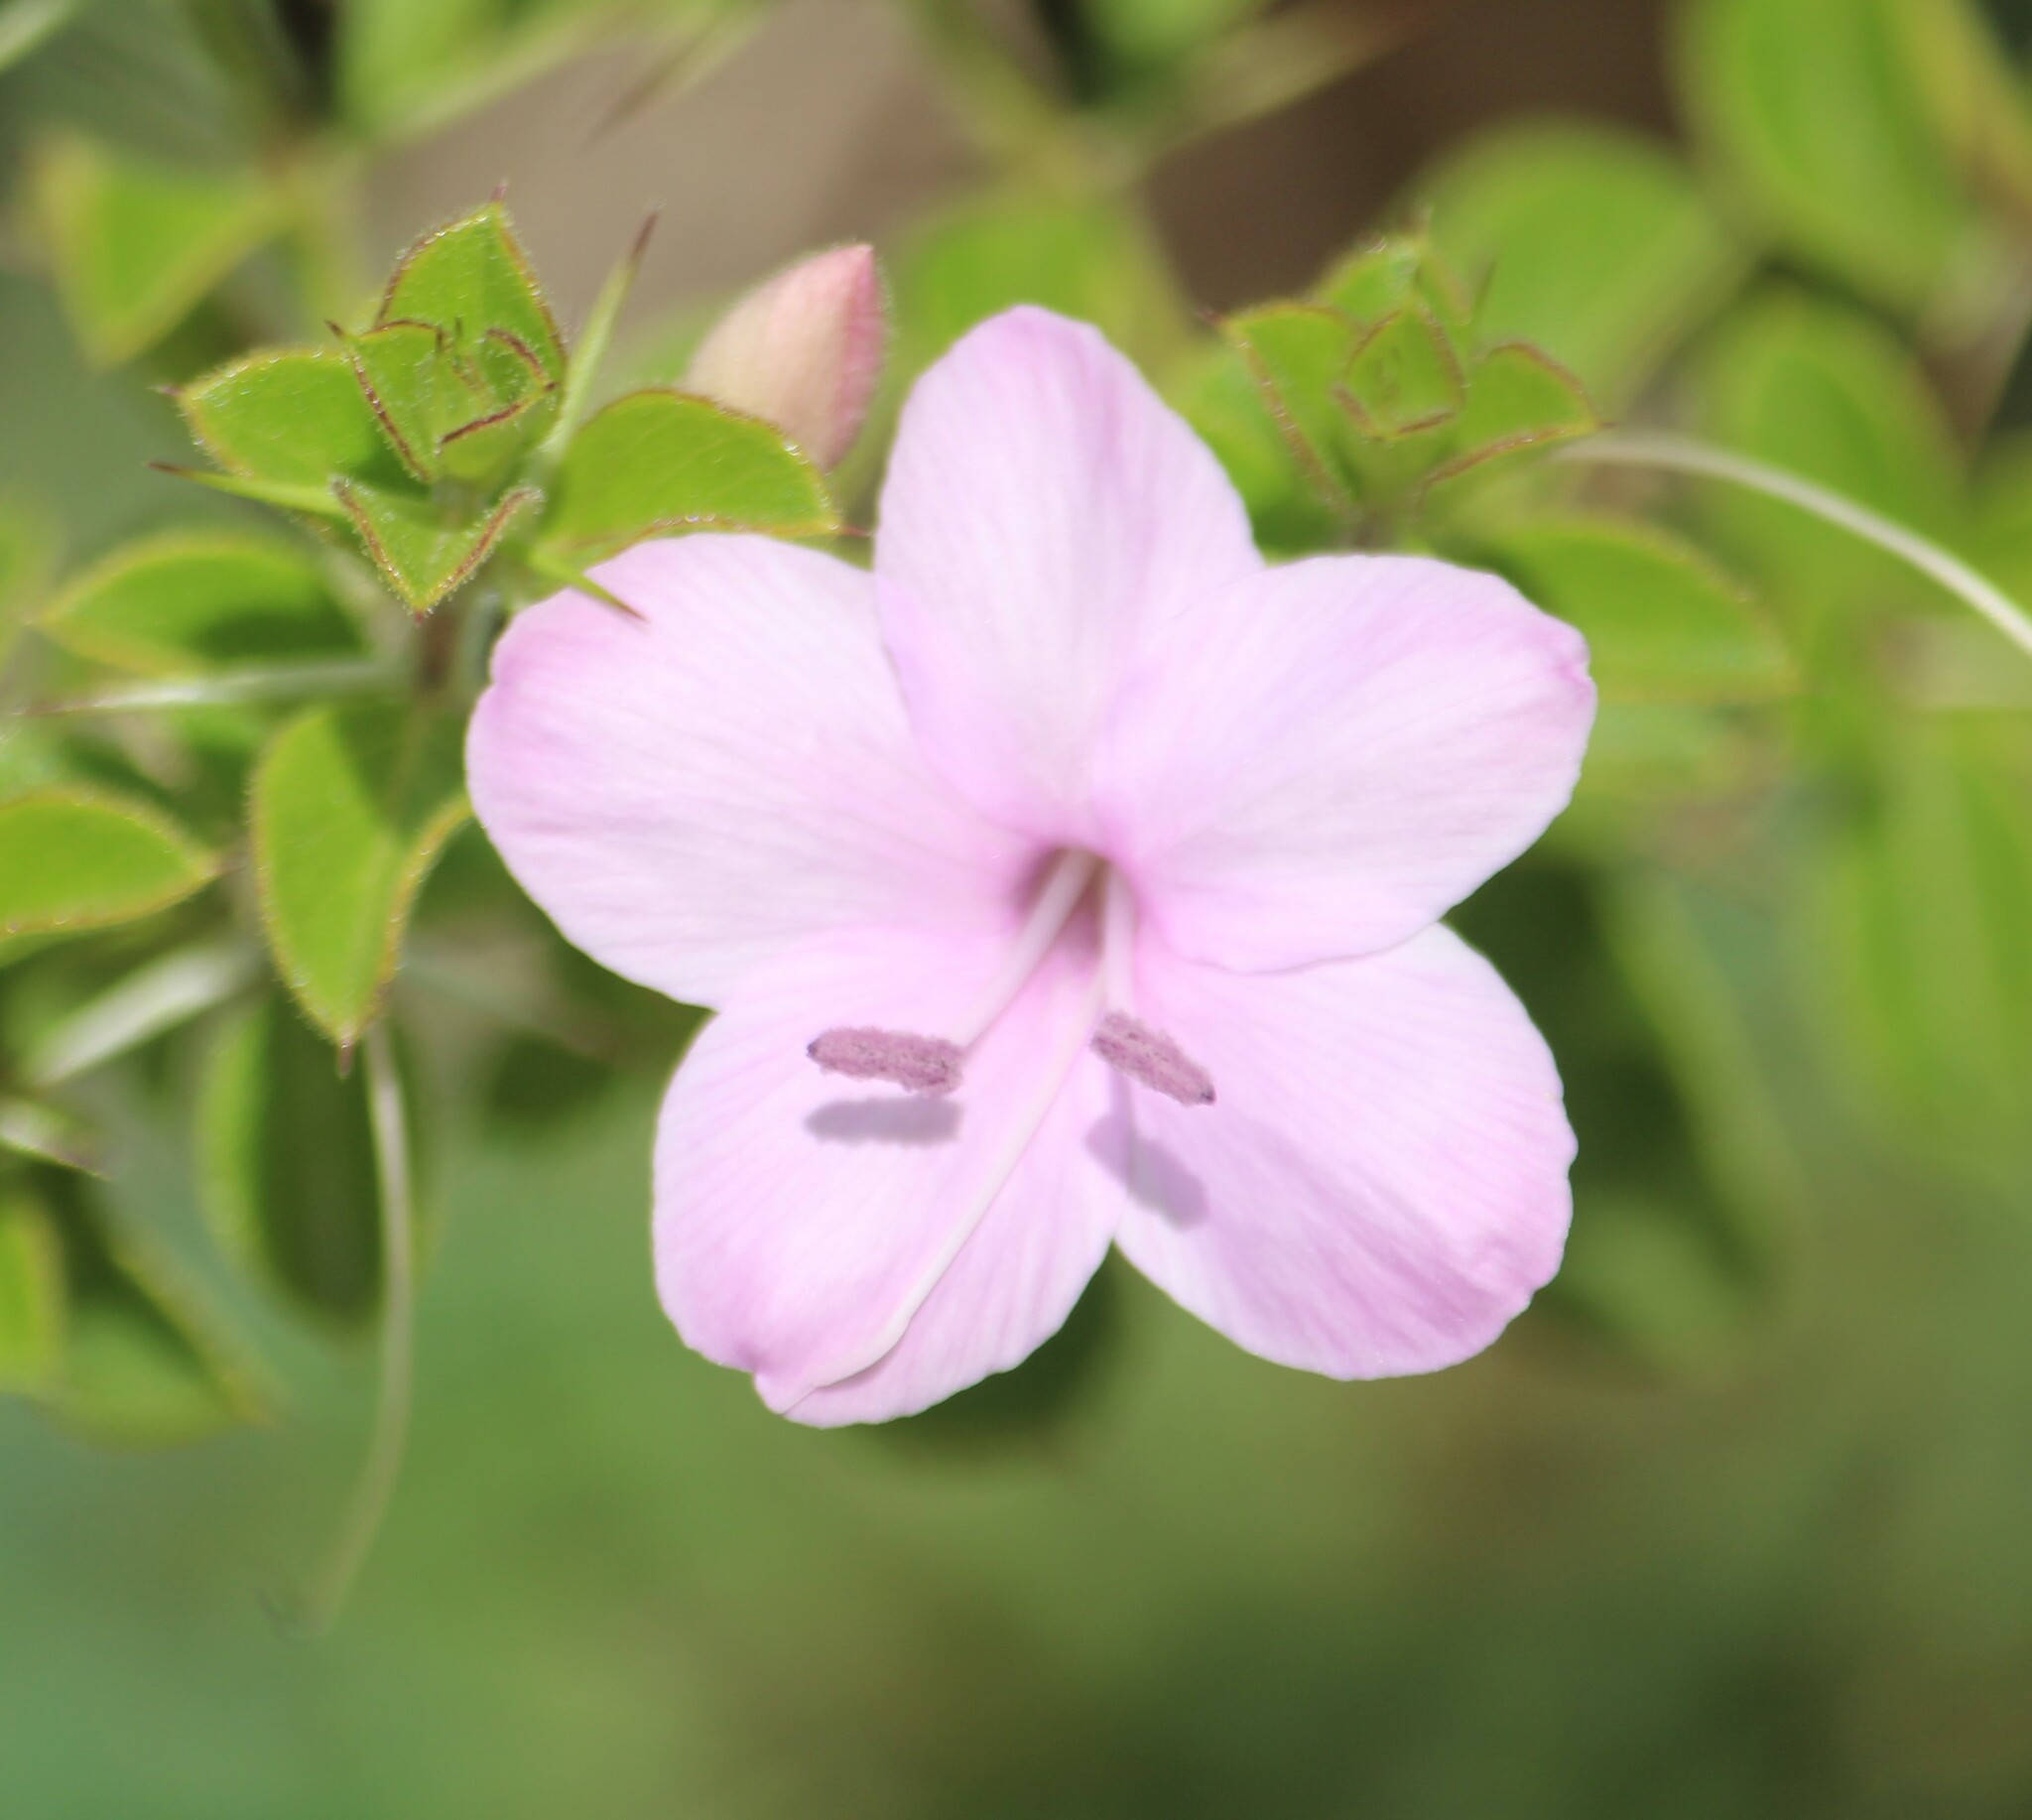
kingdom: Plantae
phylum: Tracheophyta
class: Magnoliopsida
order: Lamiales
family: Acanthaceae
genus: Barleria
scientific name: Barleria mysorensis
